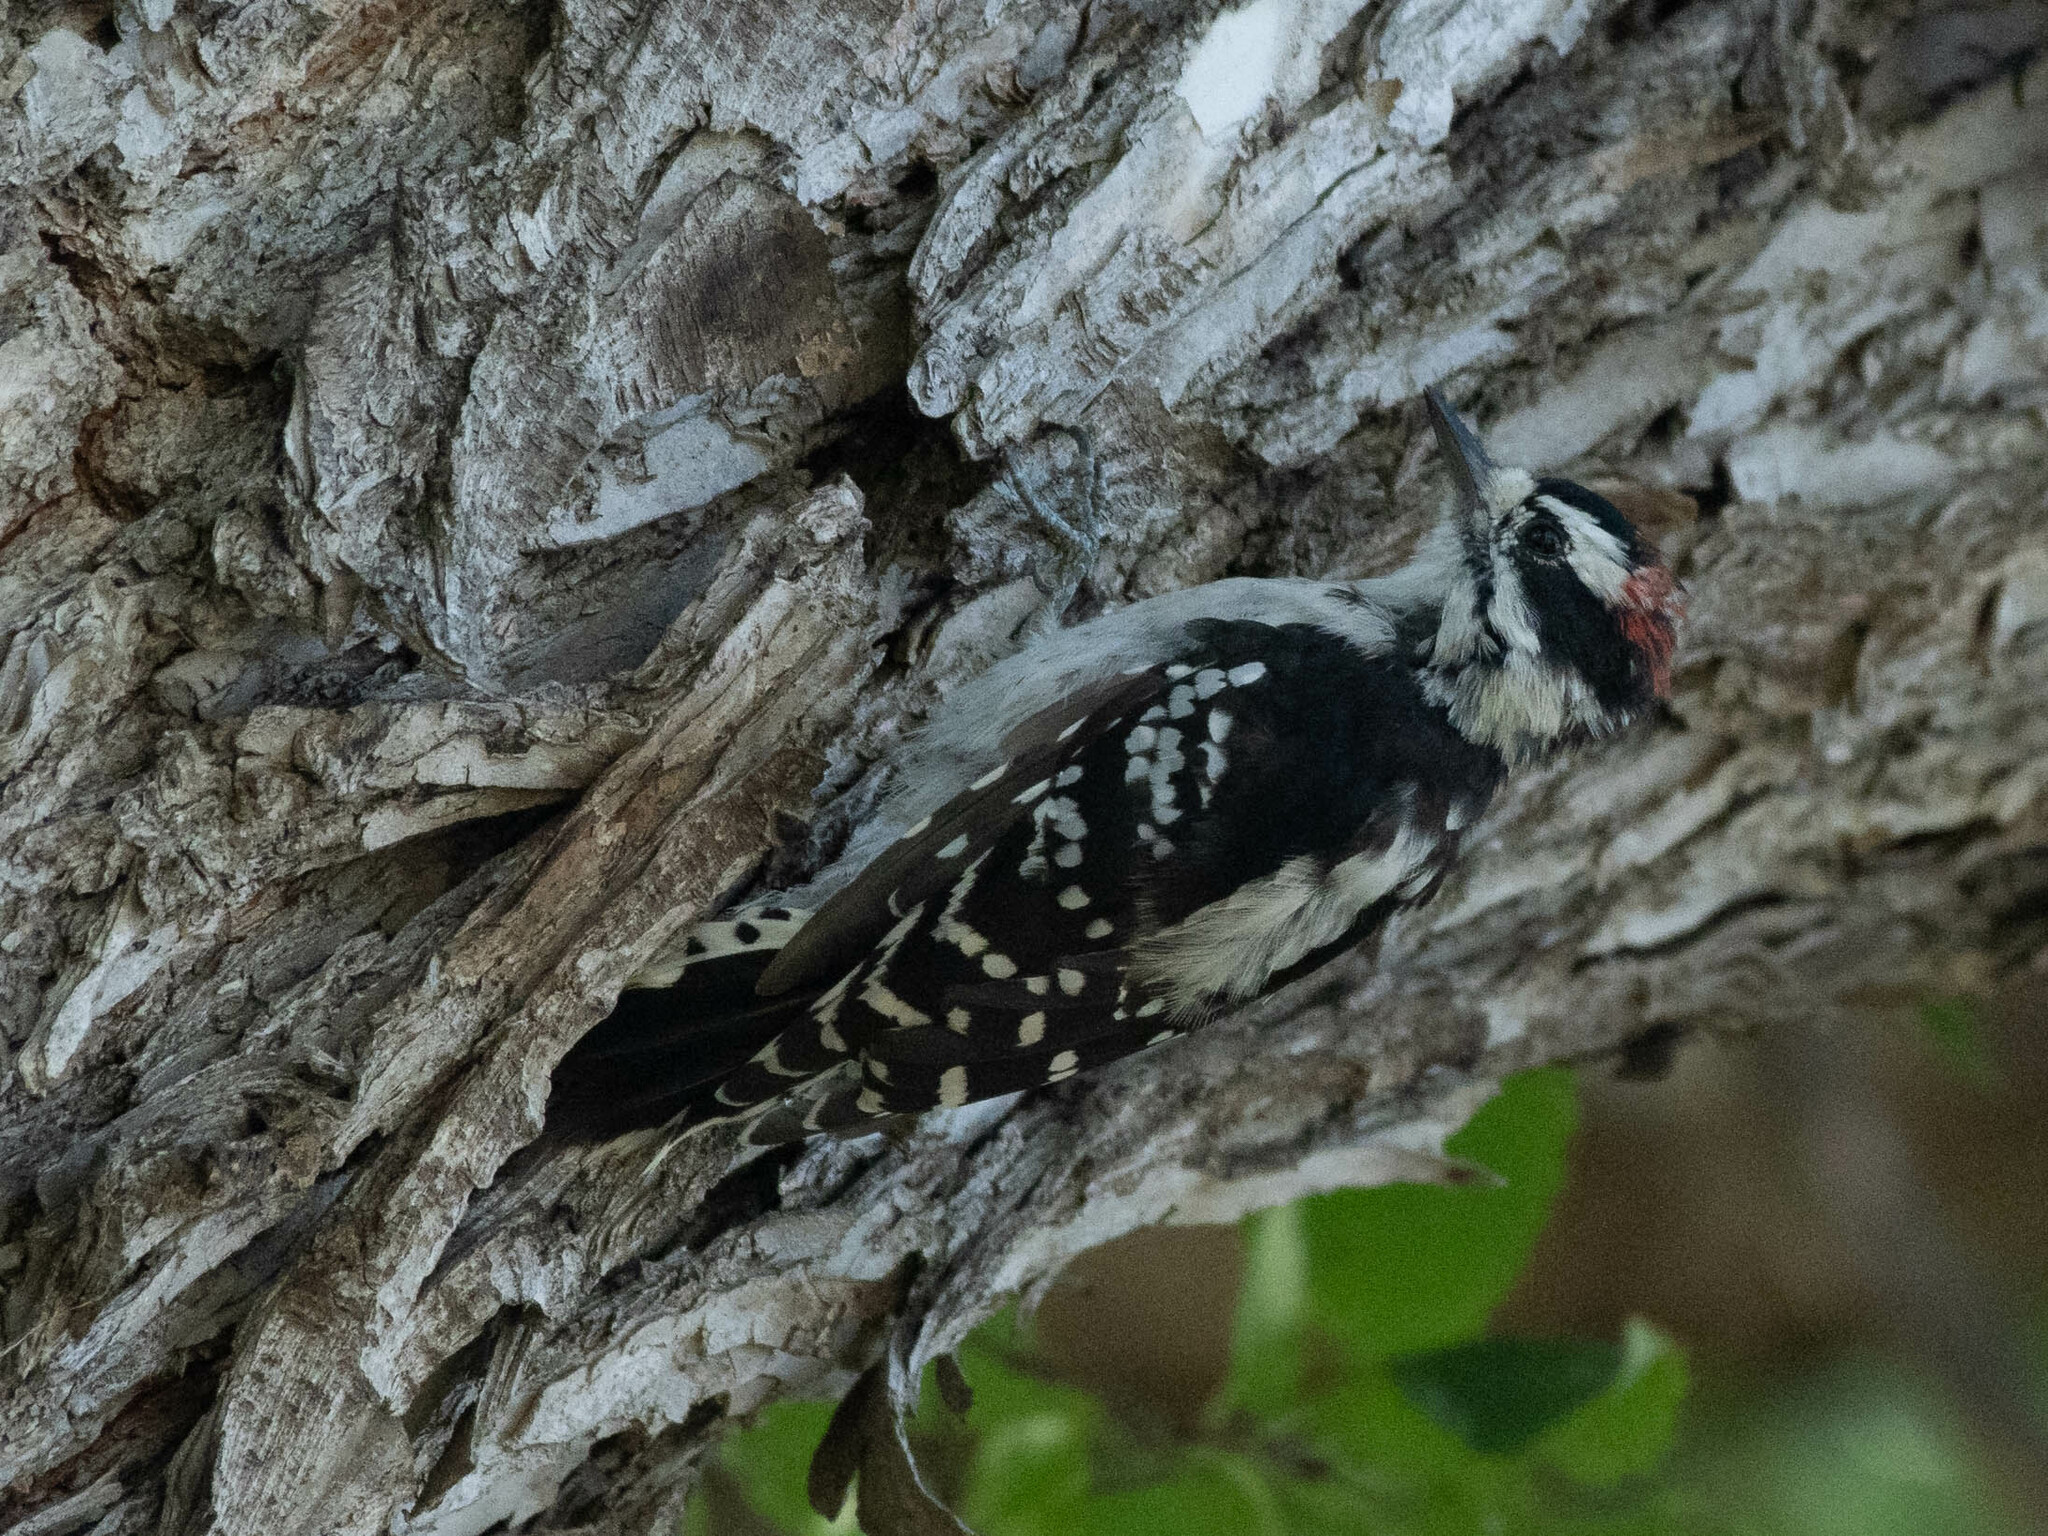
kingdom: Animalia
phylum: Chordata
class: Aves
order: Piciformes
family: Picidae
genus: Dryobates
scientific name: Dryobates pubescens
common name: Downy woodpecker
